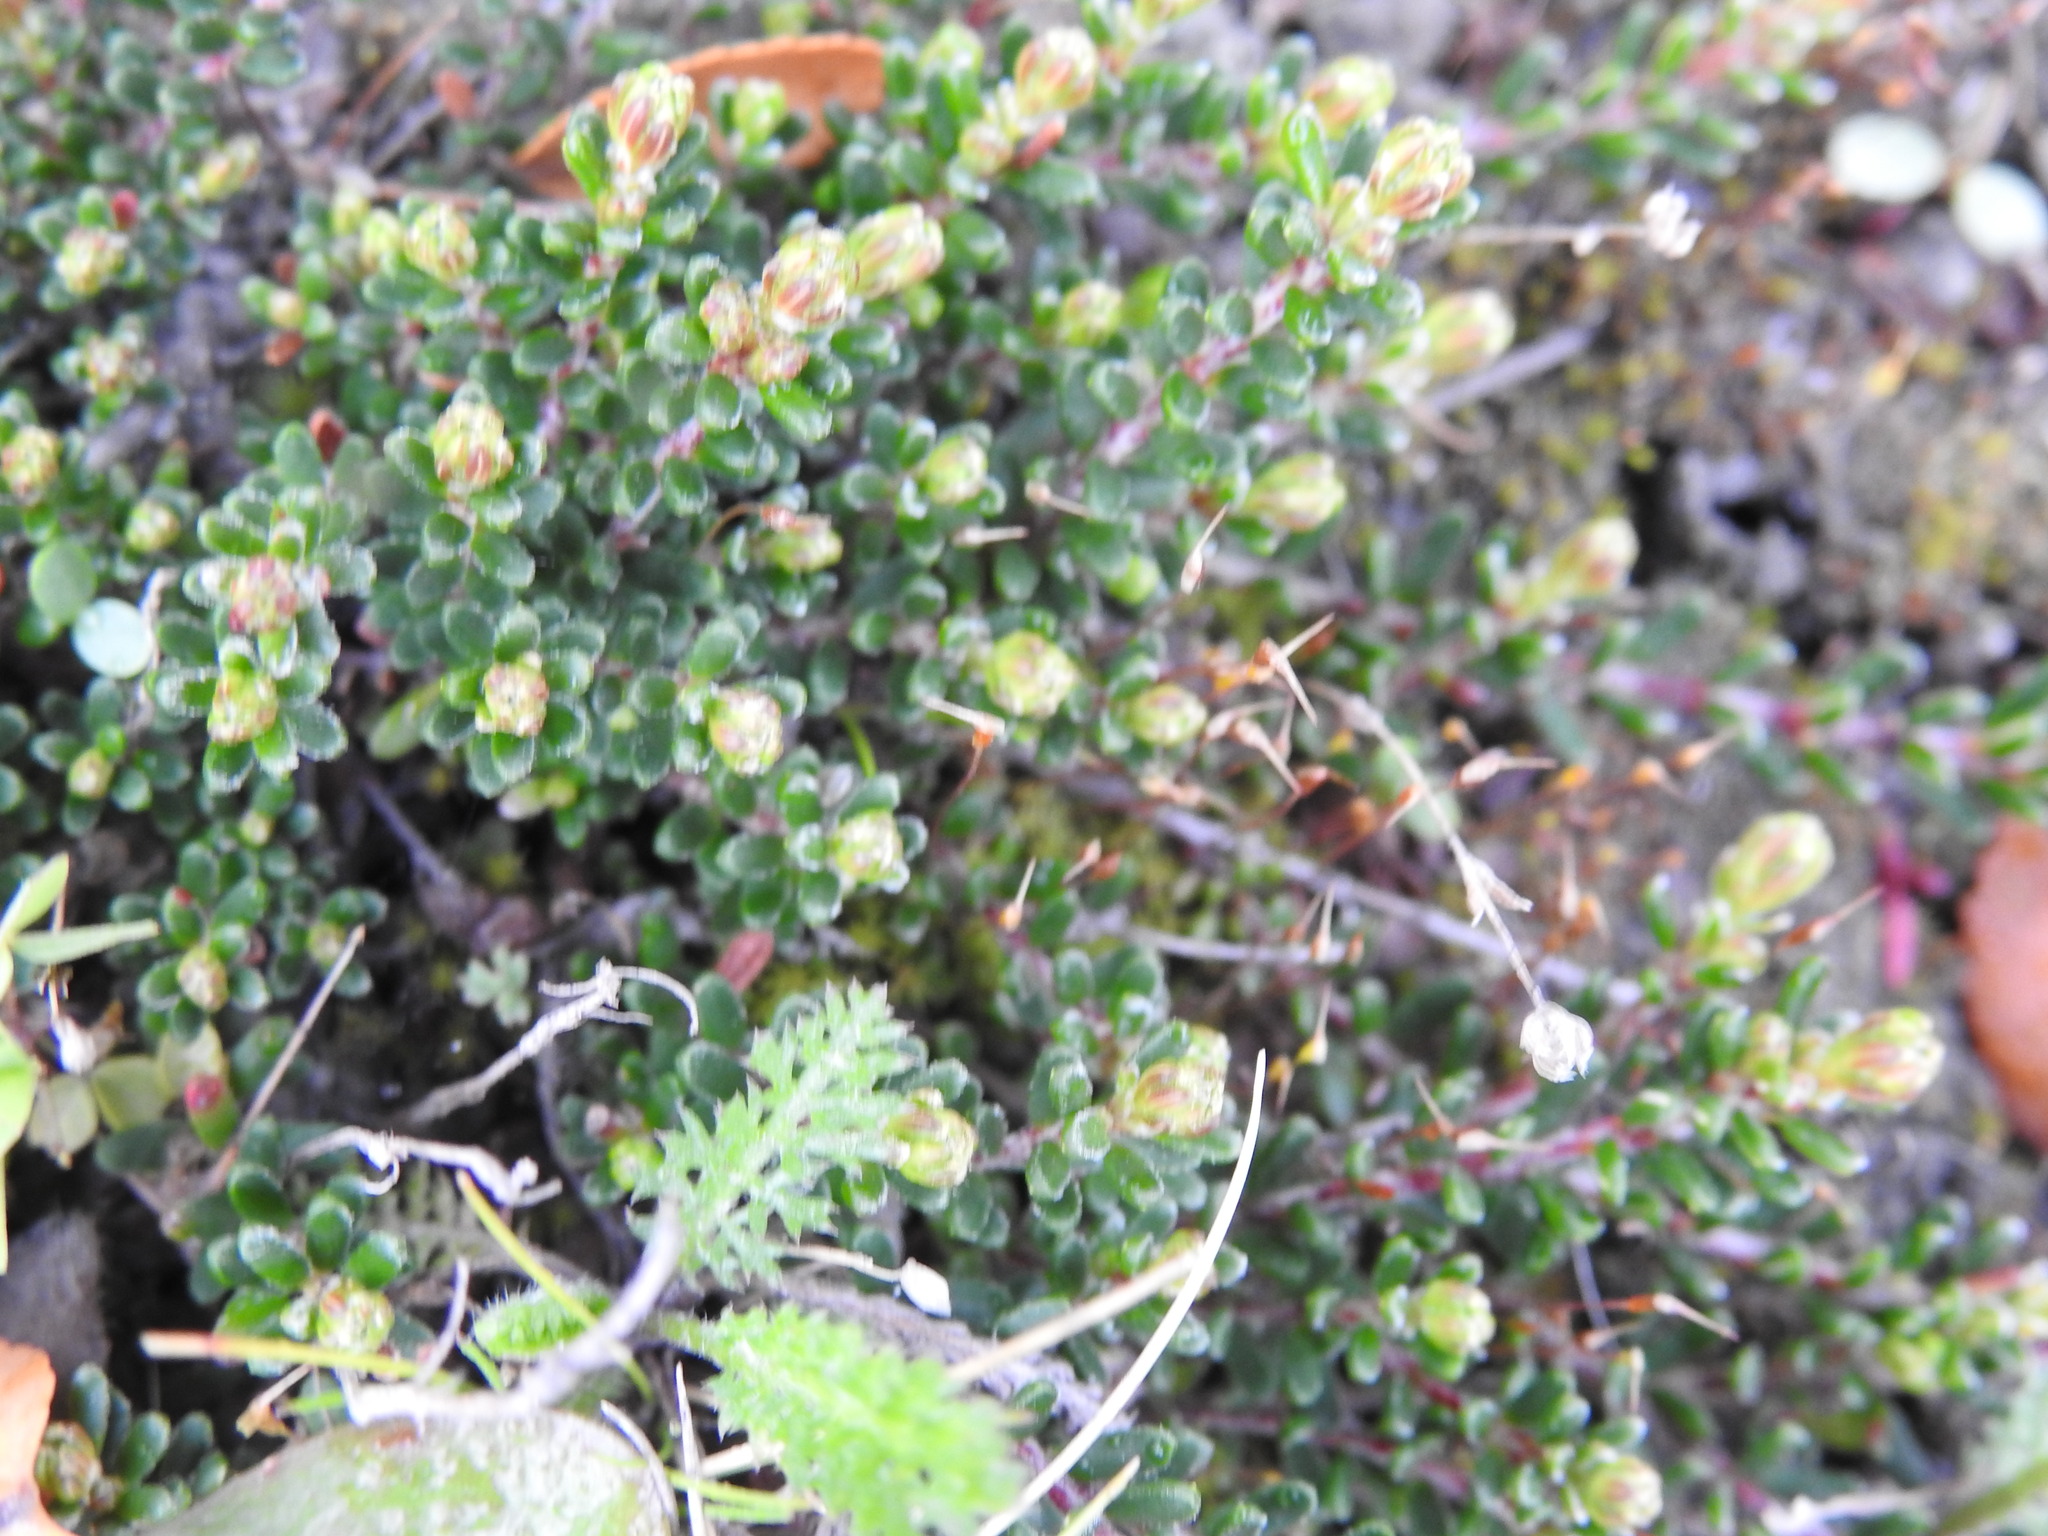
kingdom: Plantae
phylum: Tracheophyta
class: Magnoliopsida
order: Ericales
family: Ericaceae
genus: Empetrum
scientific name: Empetrum rubrum
